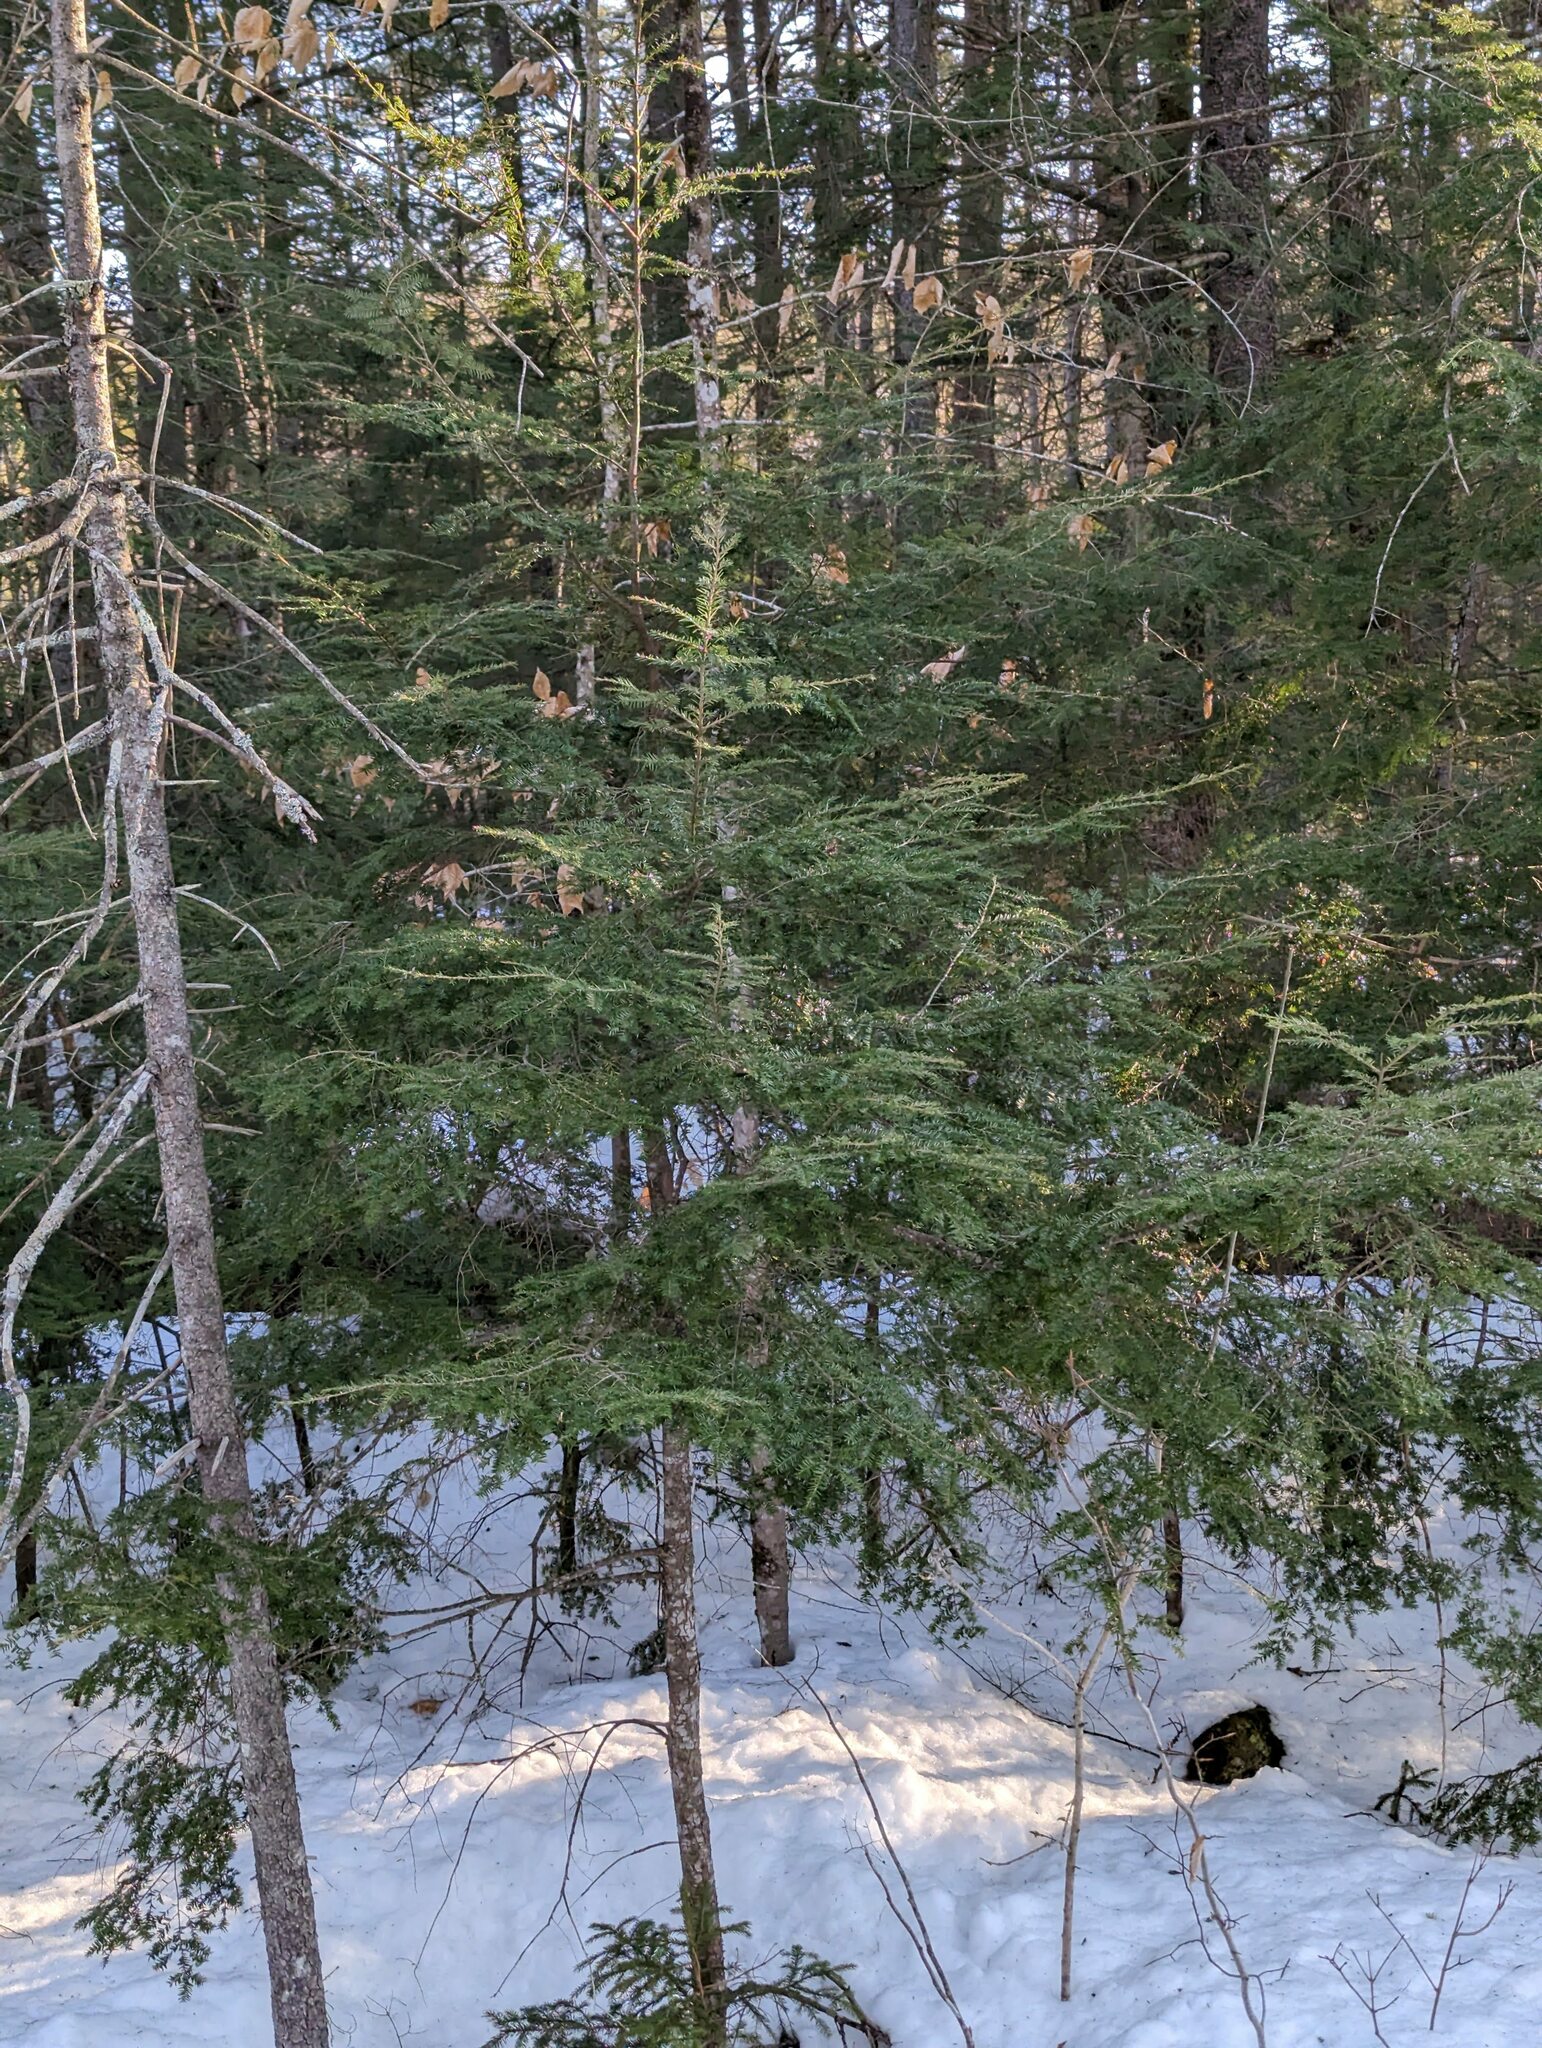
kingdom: Plantae
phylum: Tracheophyta
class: Pinopsida
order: Pinales
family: Pinaceae
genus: Tsuga
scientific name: Tsuga canadensis
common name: Eastern hemlock
